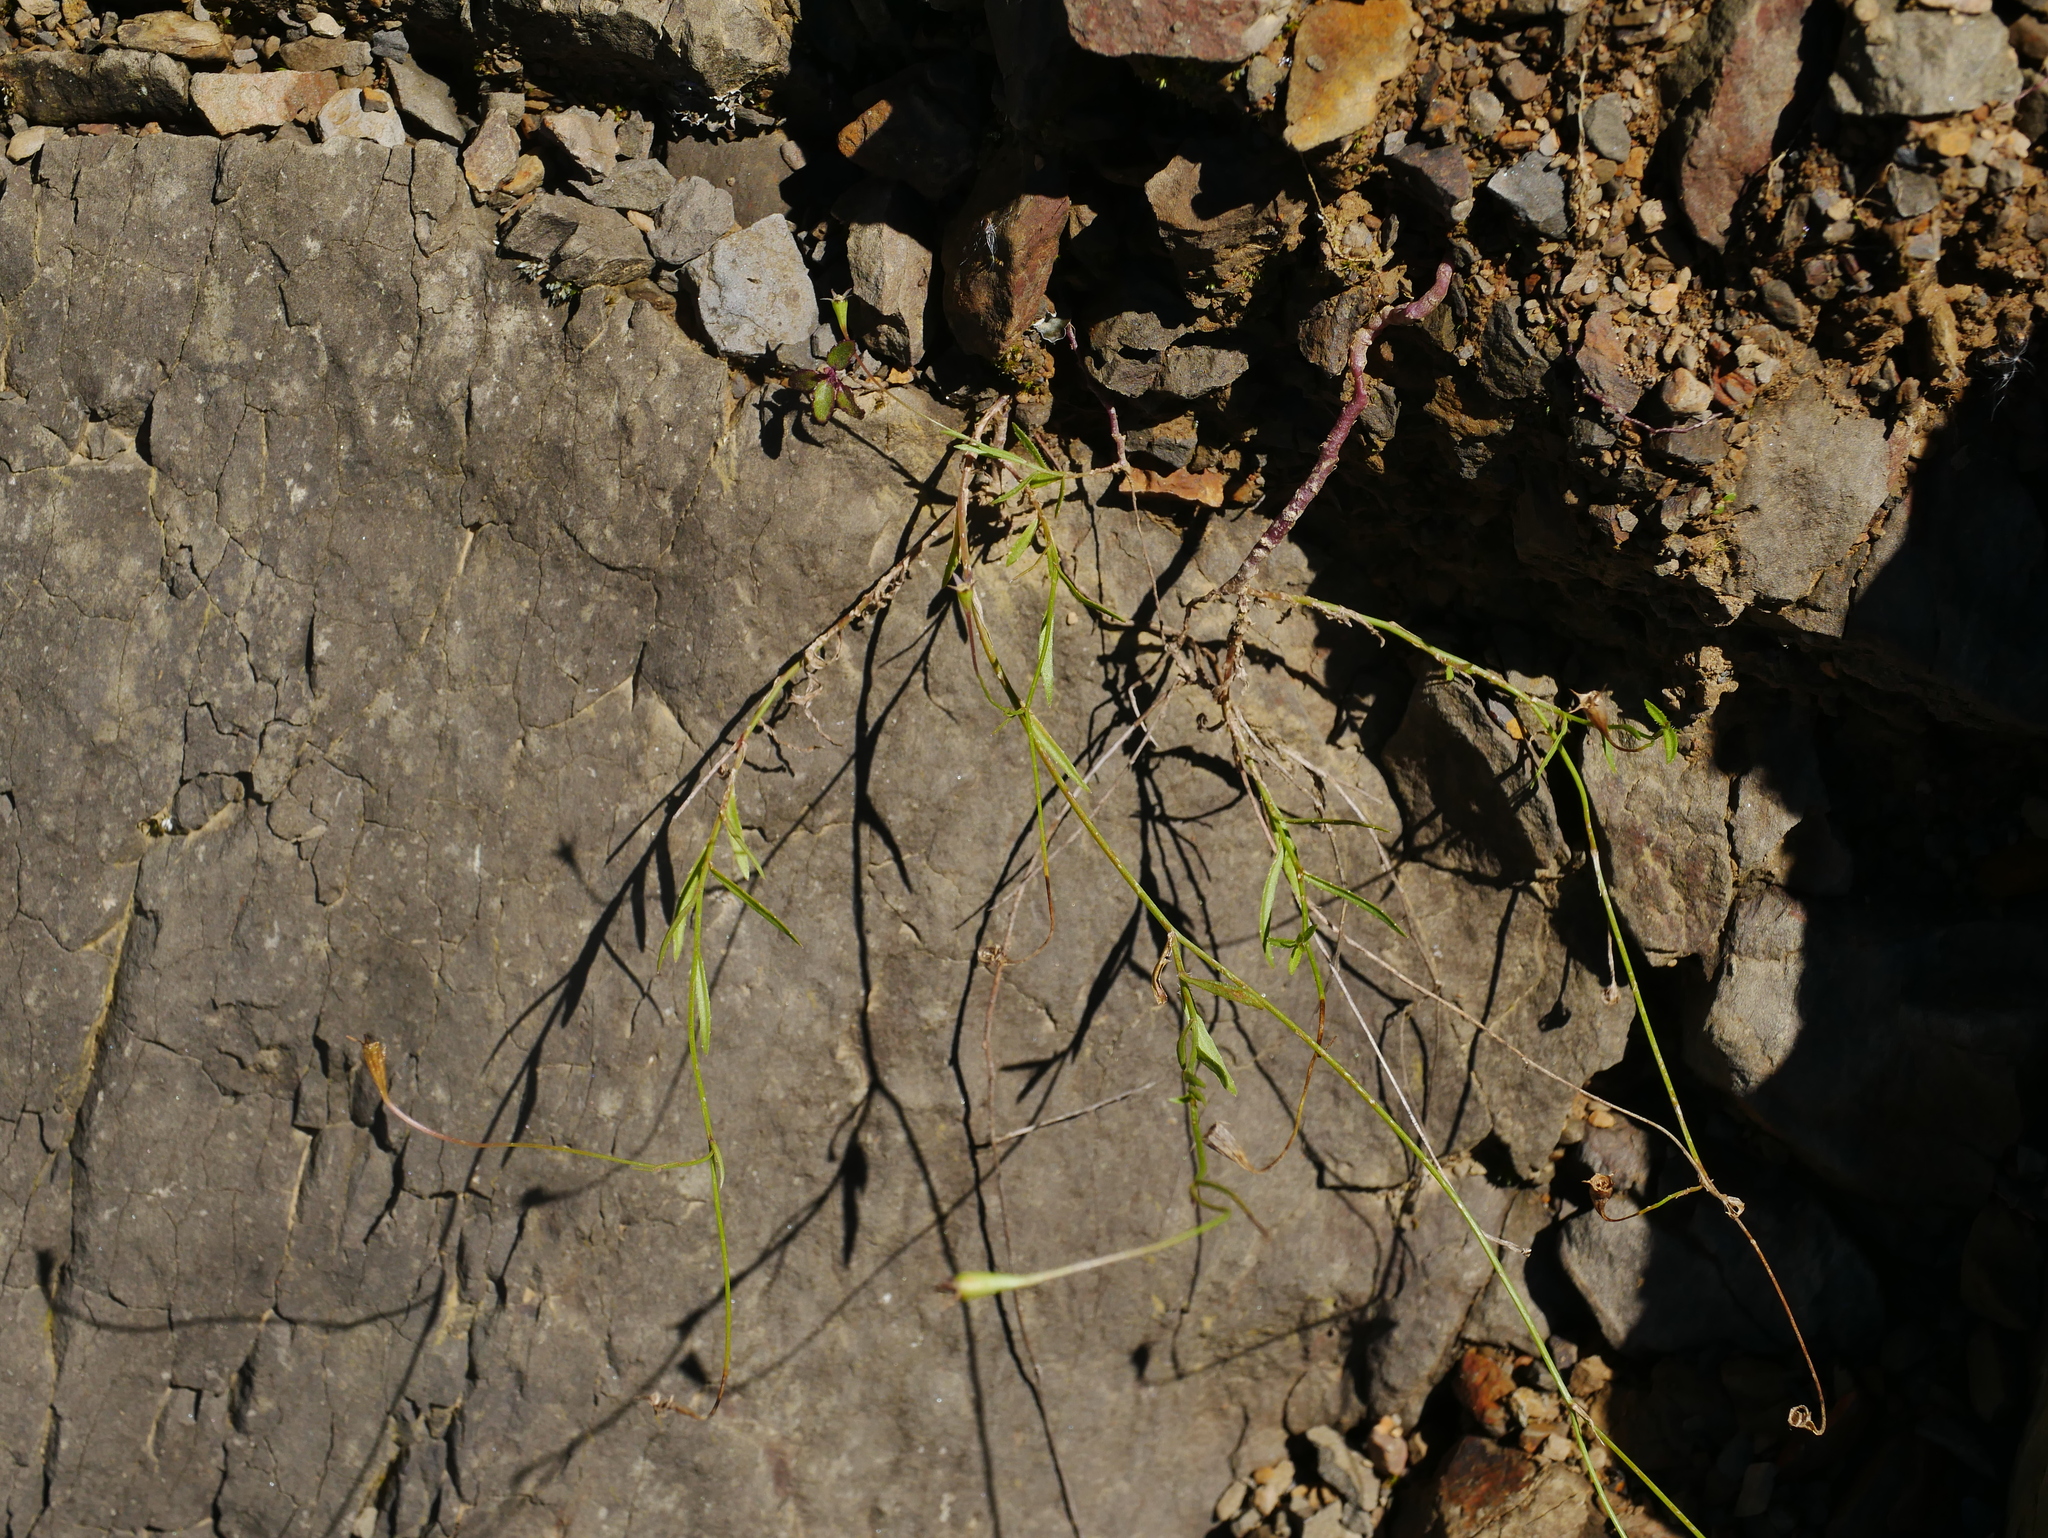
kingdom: Plantae
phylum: Tracheophyta
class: Magnoliopsida
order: Asterales
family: Campanulaceae
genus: Wahlenbergia
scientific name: Wahlenbergia marginata
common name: Southern rockbell
